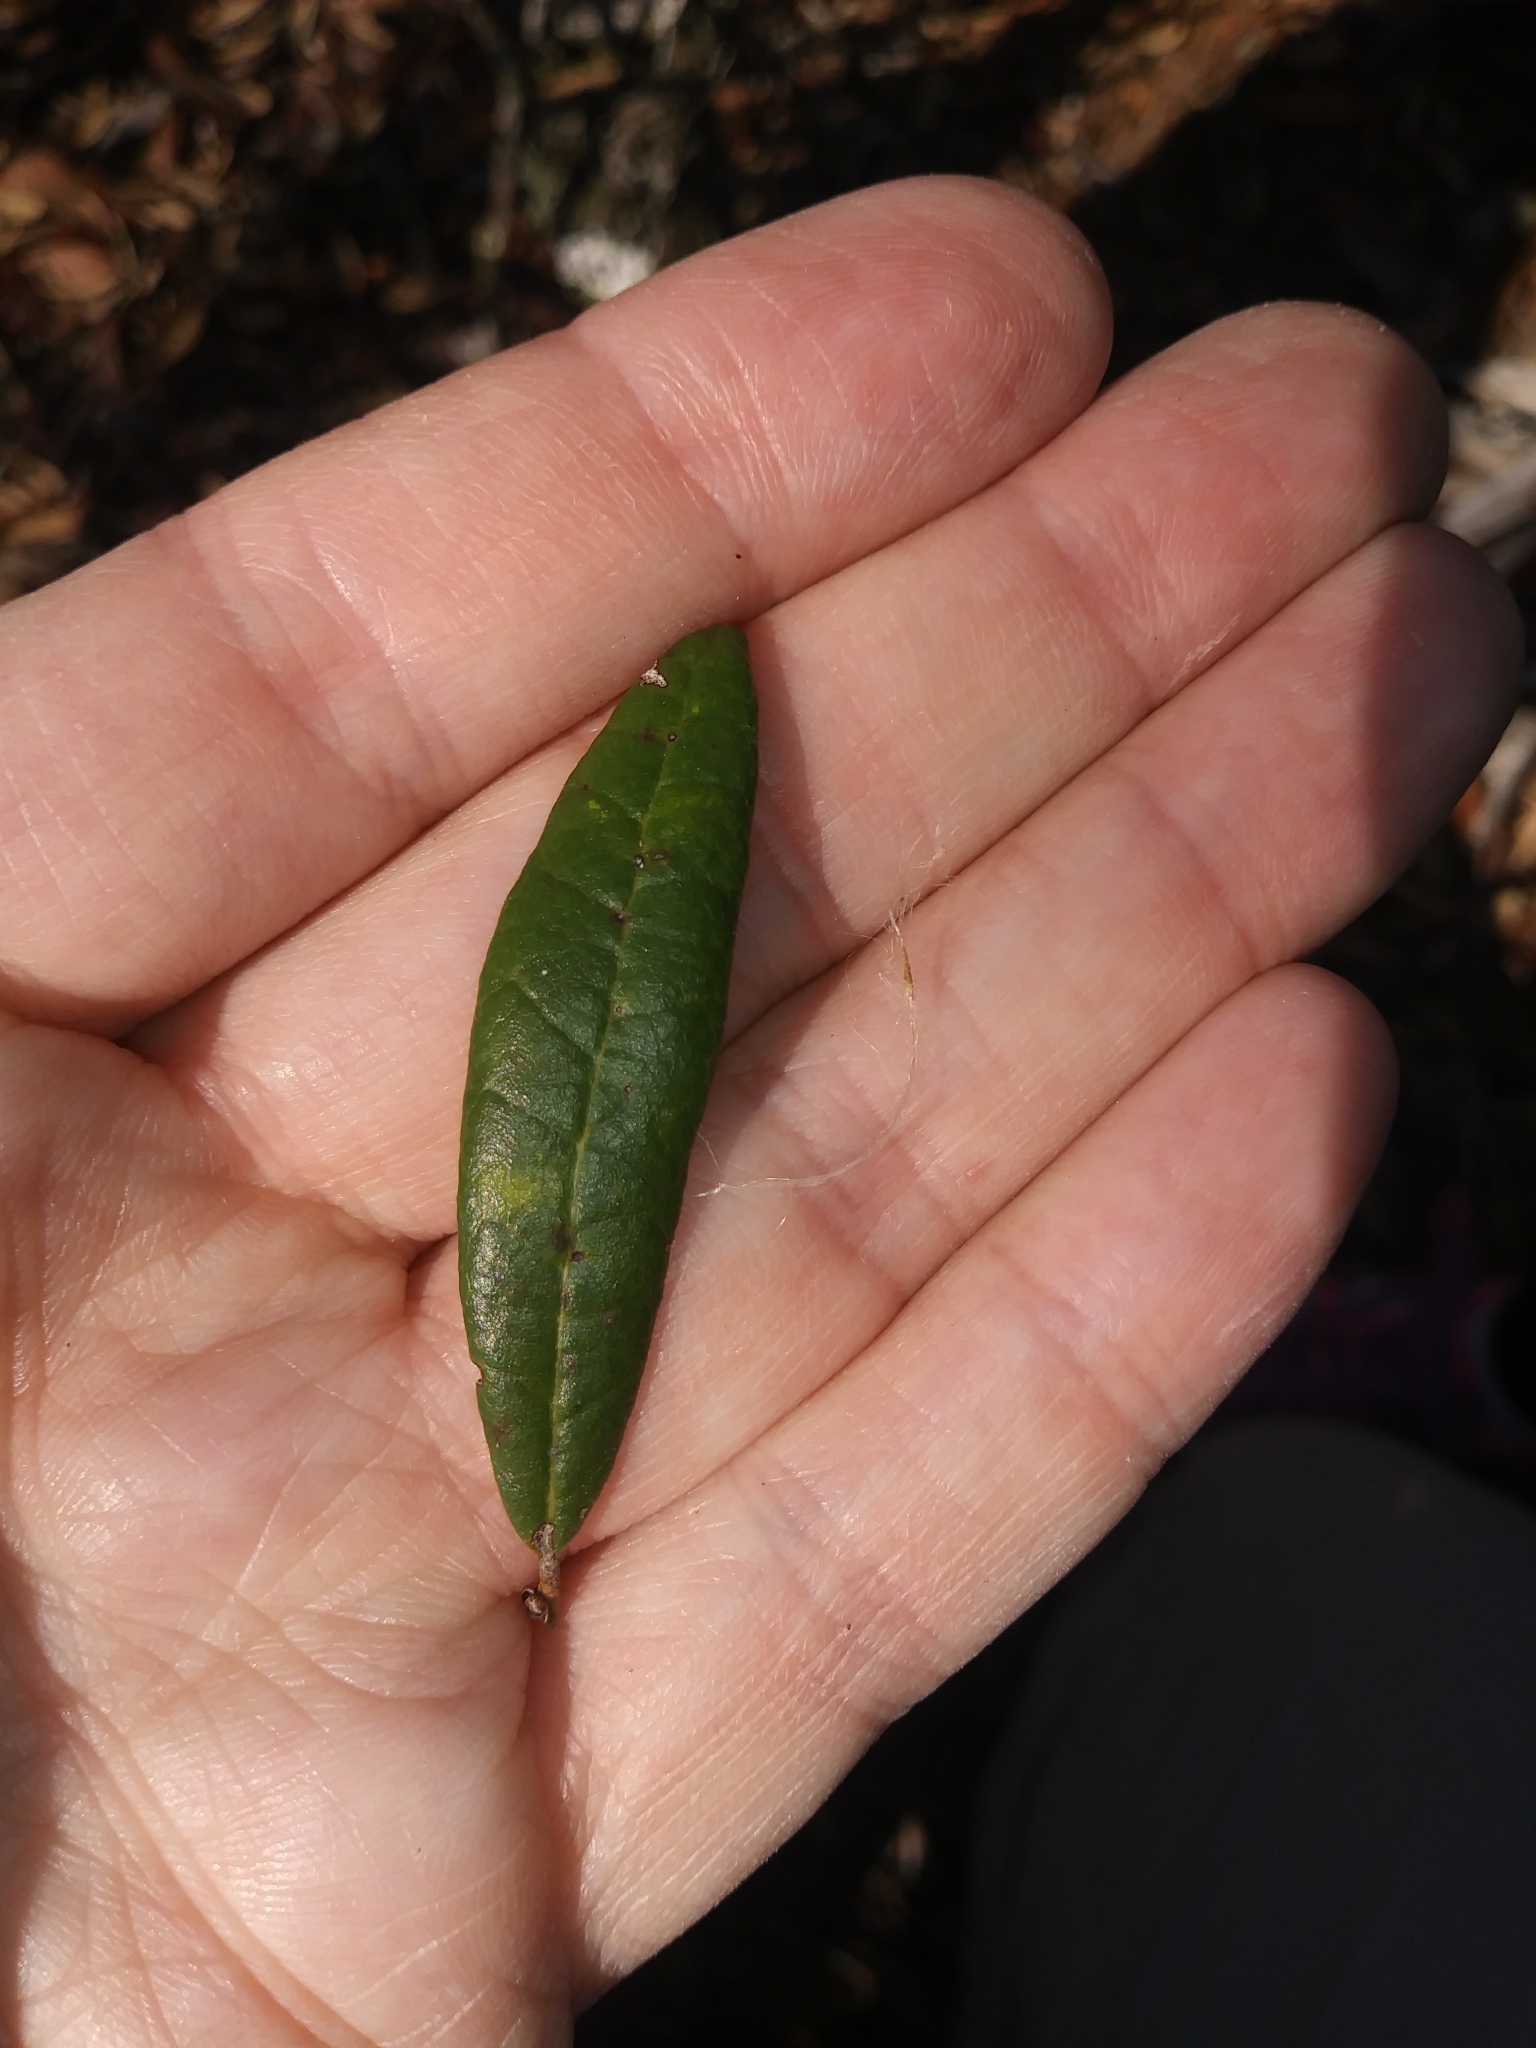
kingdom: Plantae
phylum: Tracheophyta
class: Magnoliopsida
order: Fagales
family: Fagaceae
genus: Quercus
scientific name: Quercus geminata
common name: Sand live oak
